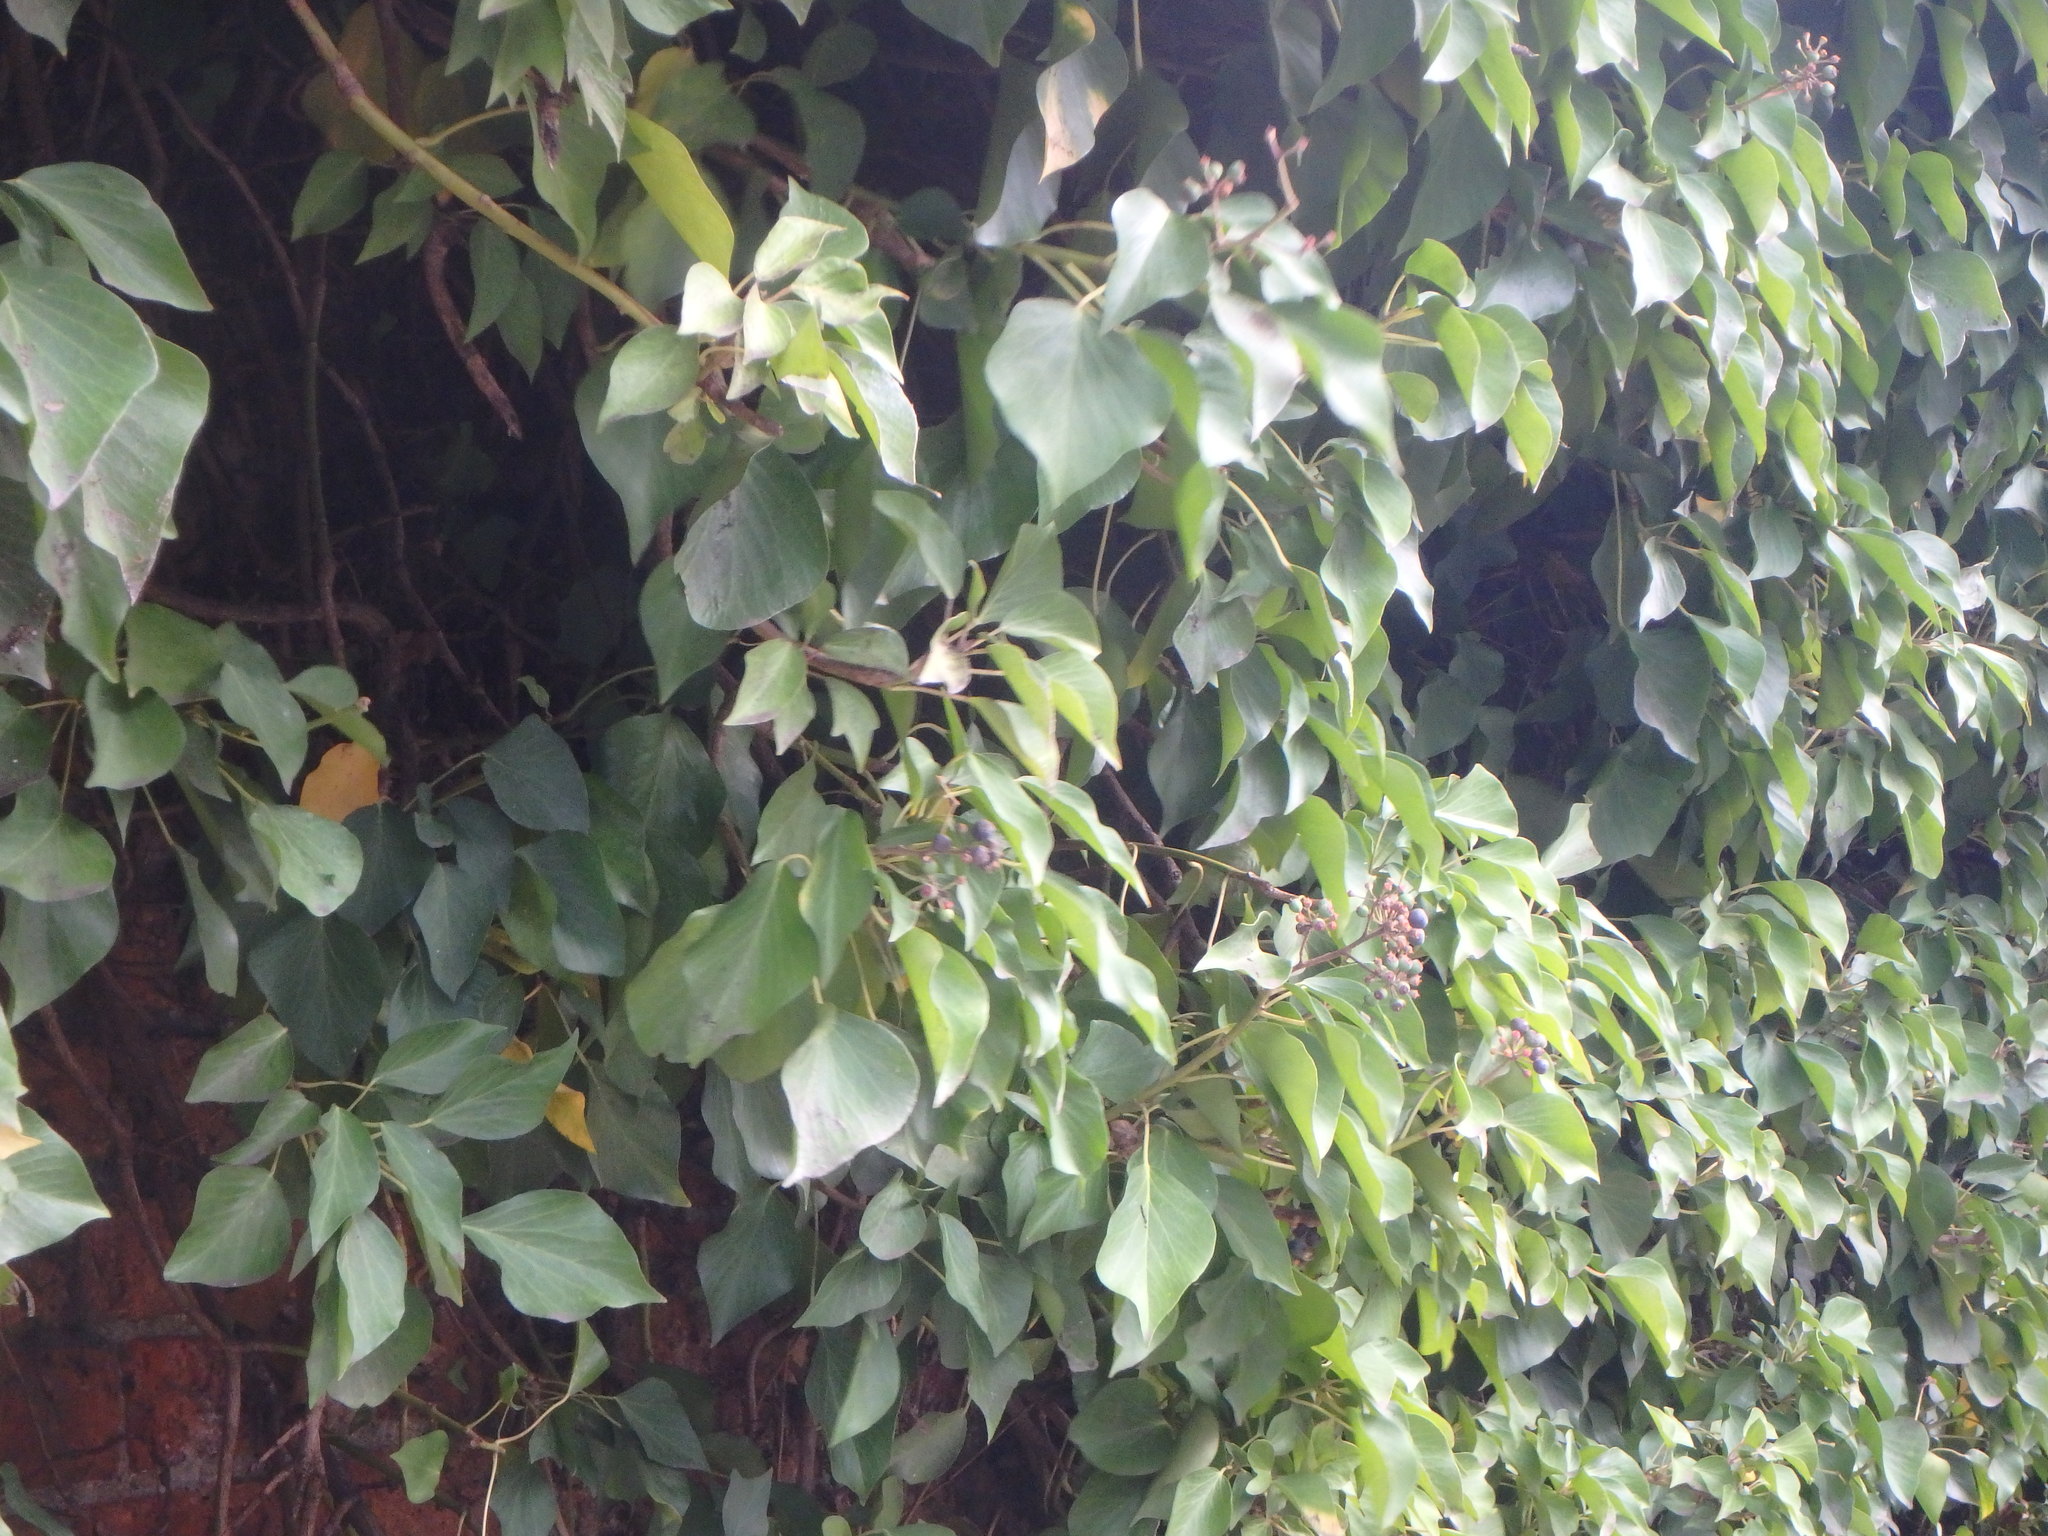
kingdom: Plantae
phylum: Tracheophyta
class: Magnoliopsida
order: Apiales
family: Araliaceae
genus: Hedera
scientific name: Hedera helix
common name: Ivy
